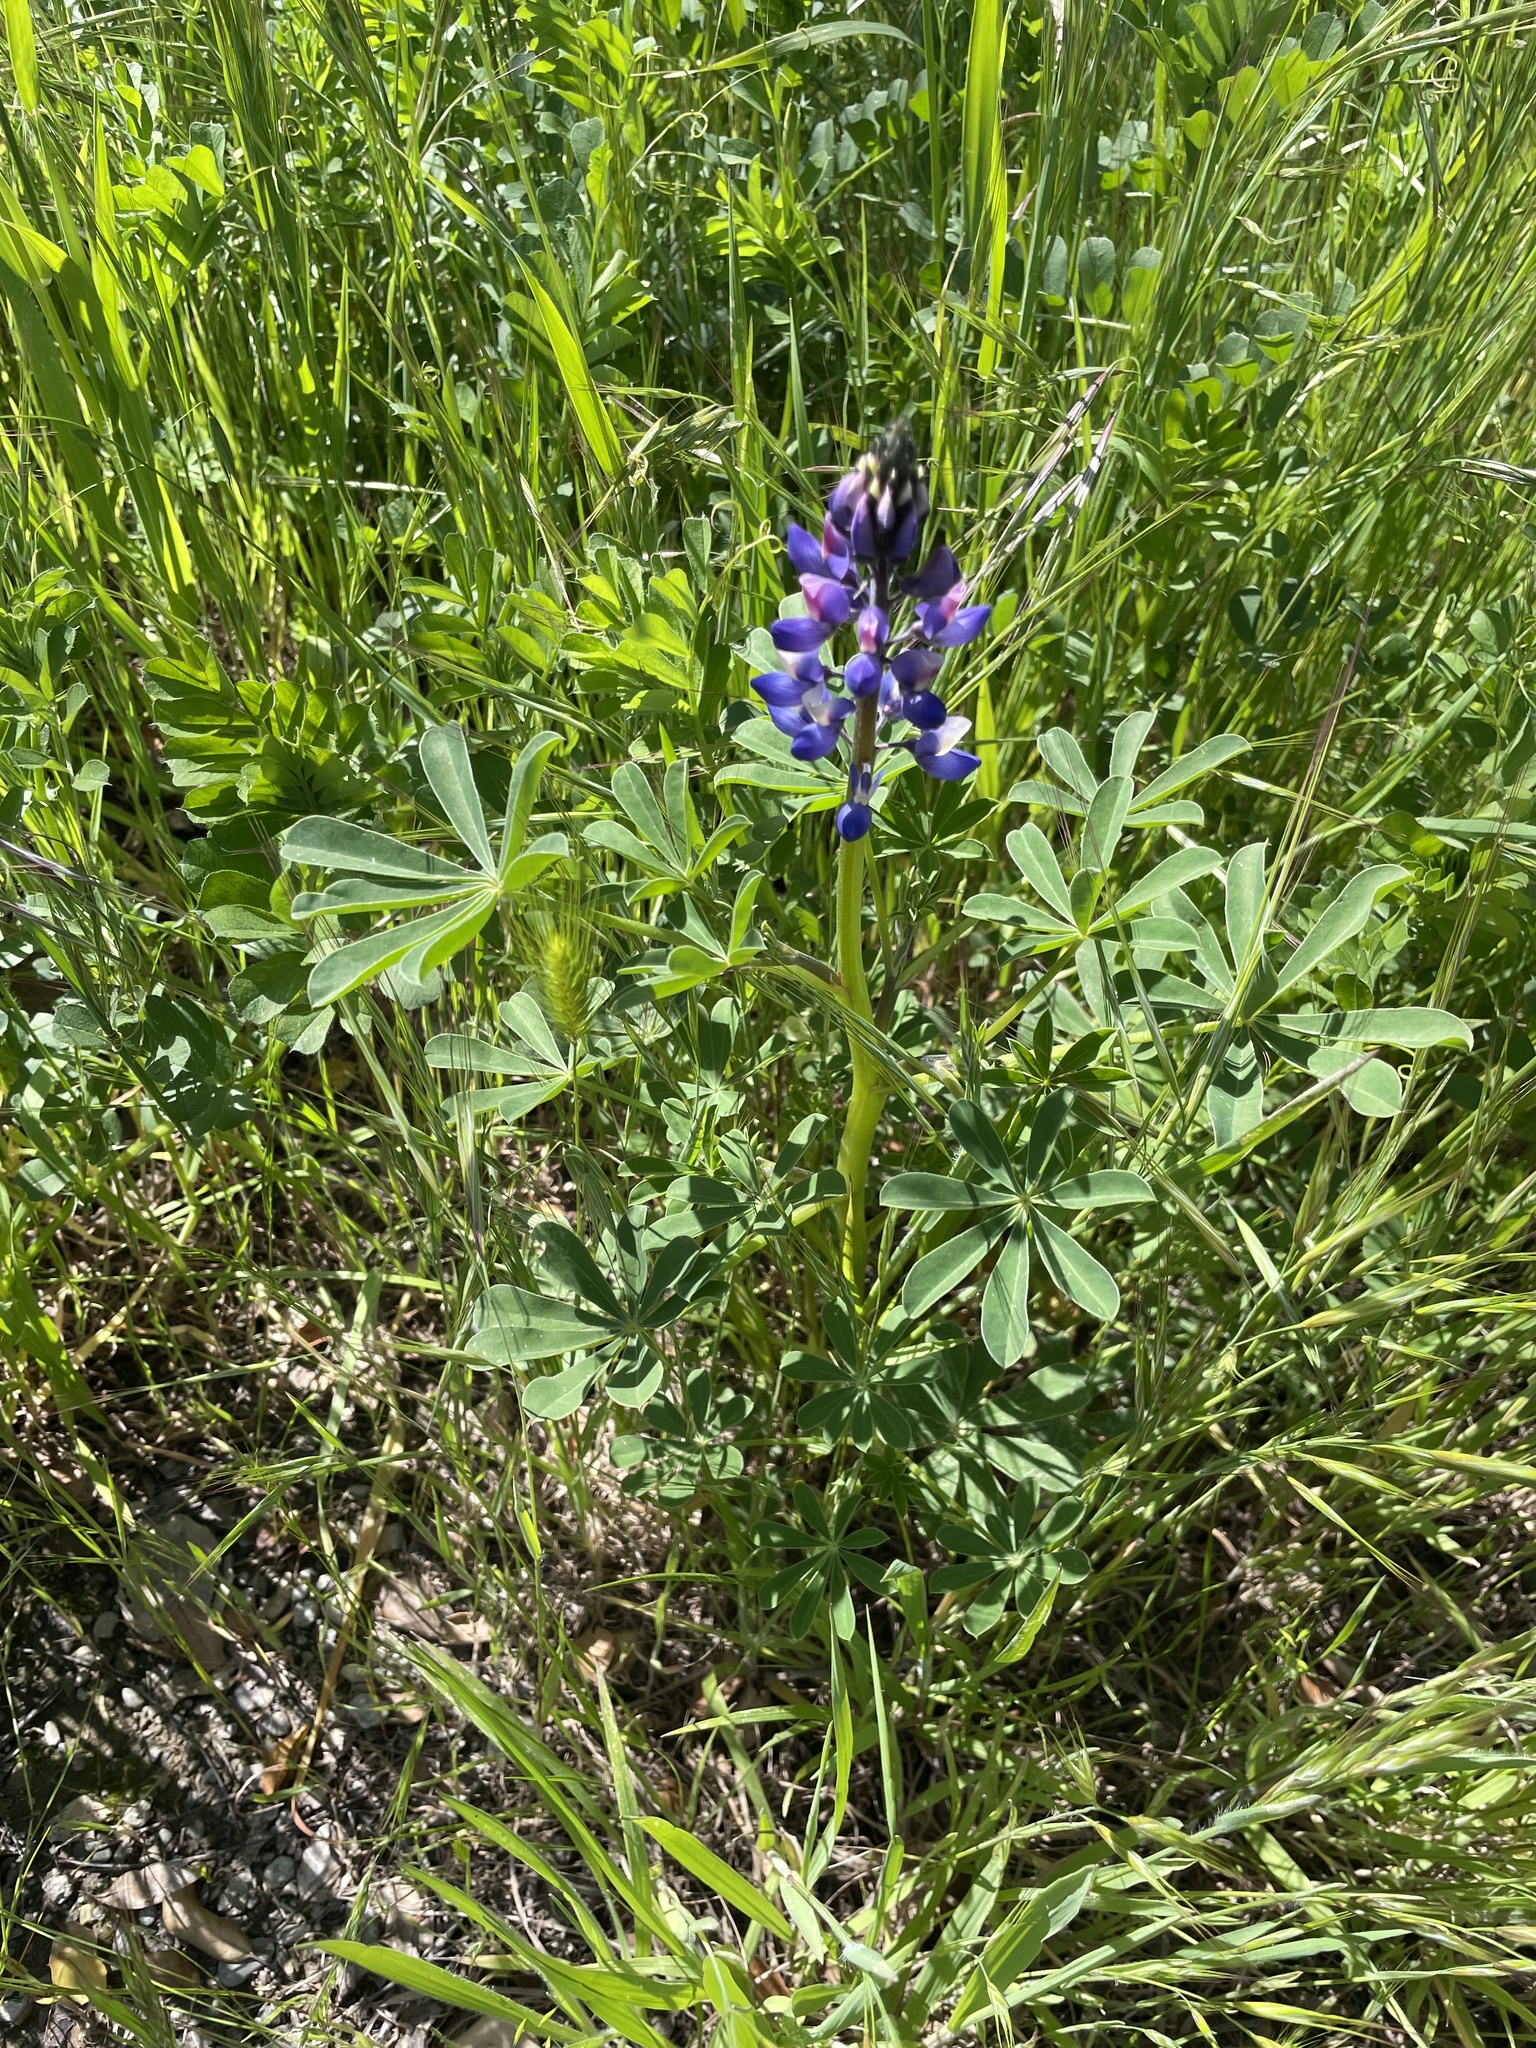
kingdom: Plantae
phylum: Tracheophyta
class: Magnoliopsida
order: Fabales
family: Fabaceae
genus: Lupinus
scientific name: Lupinus succulentus
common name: Arroyo lupine
